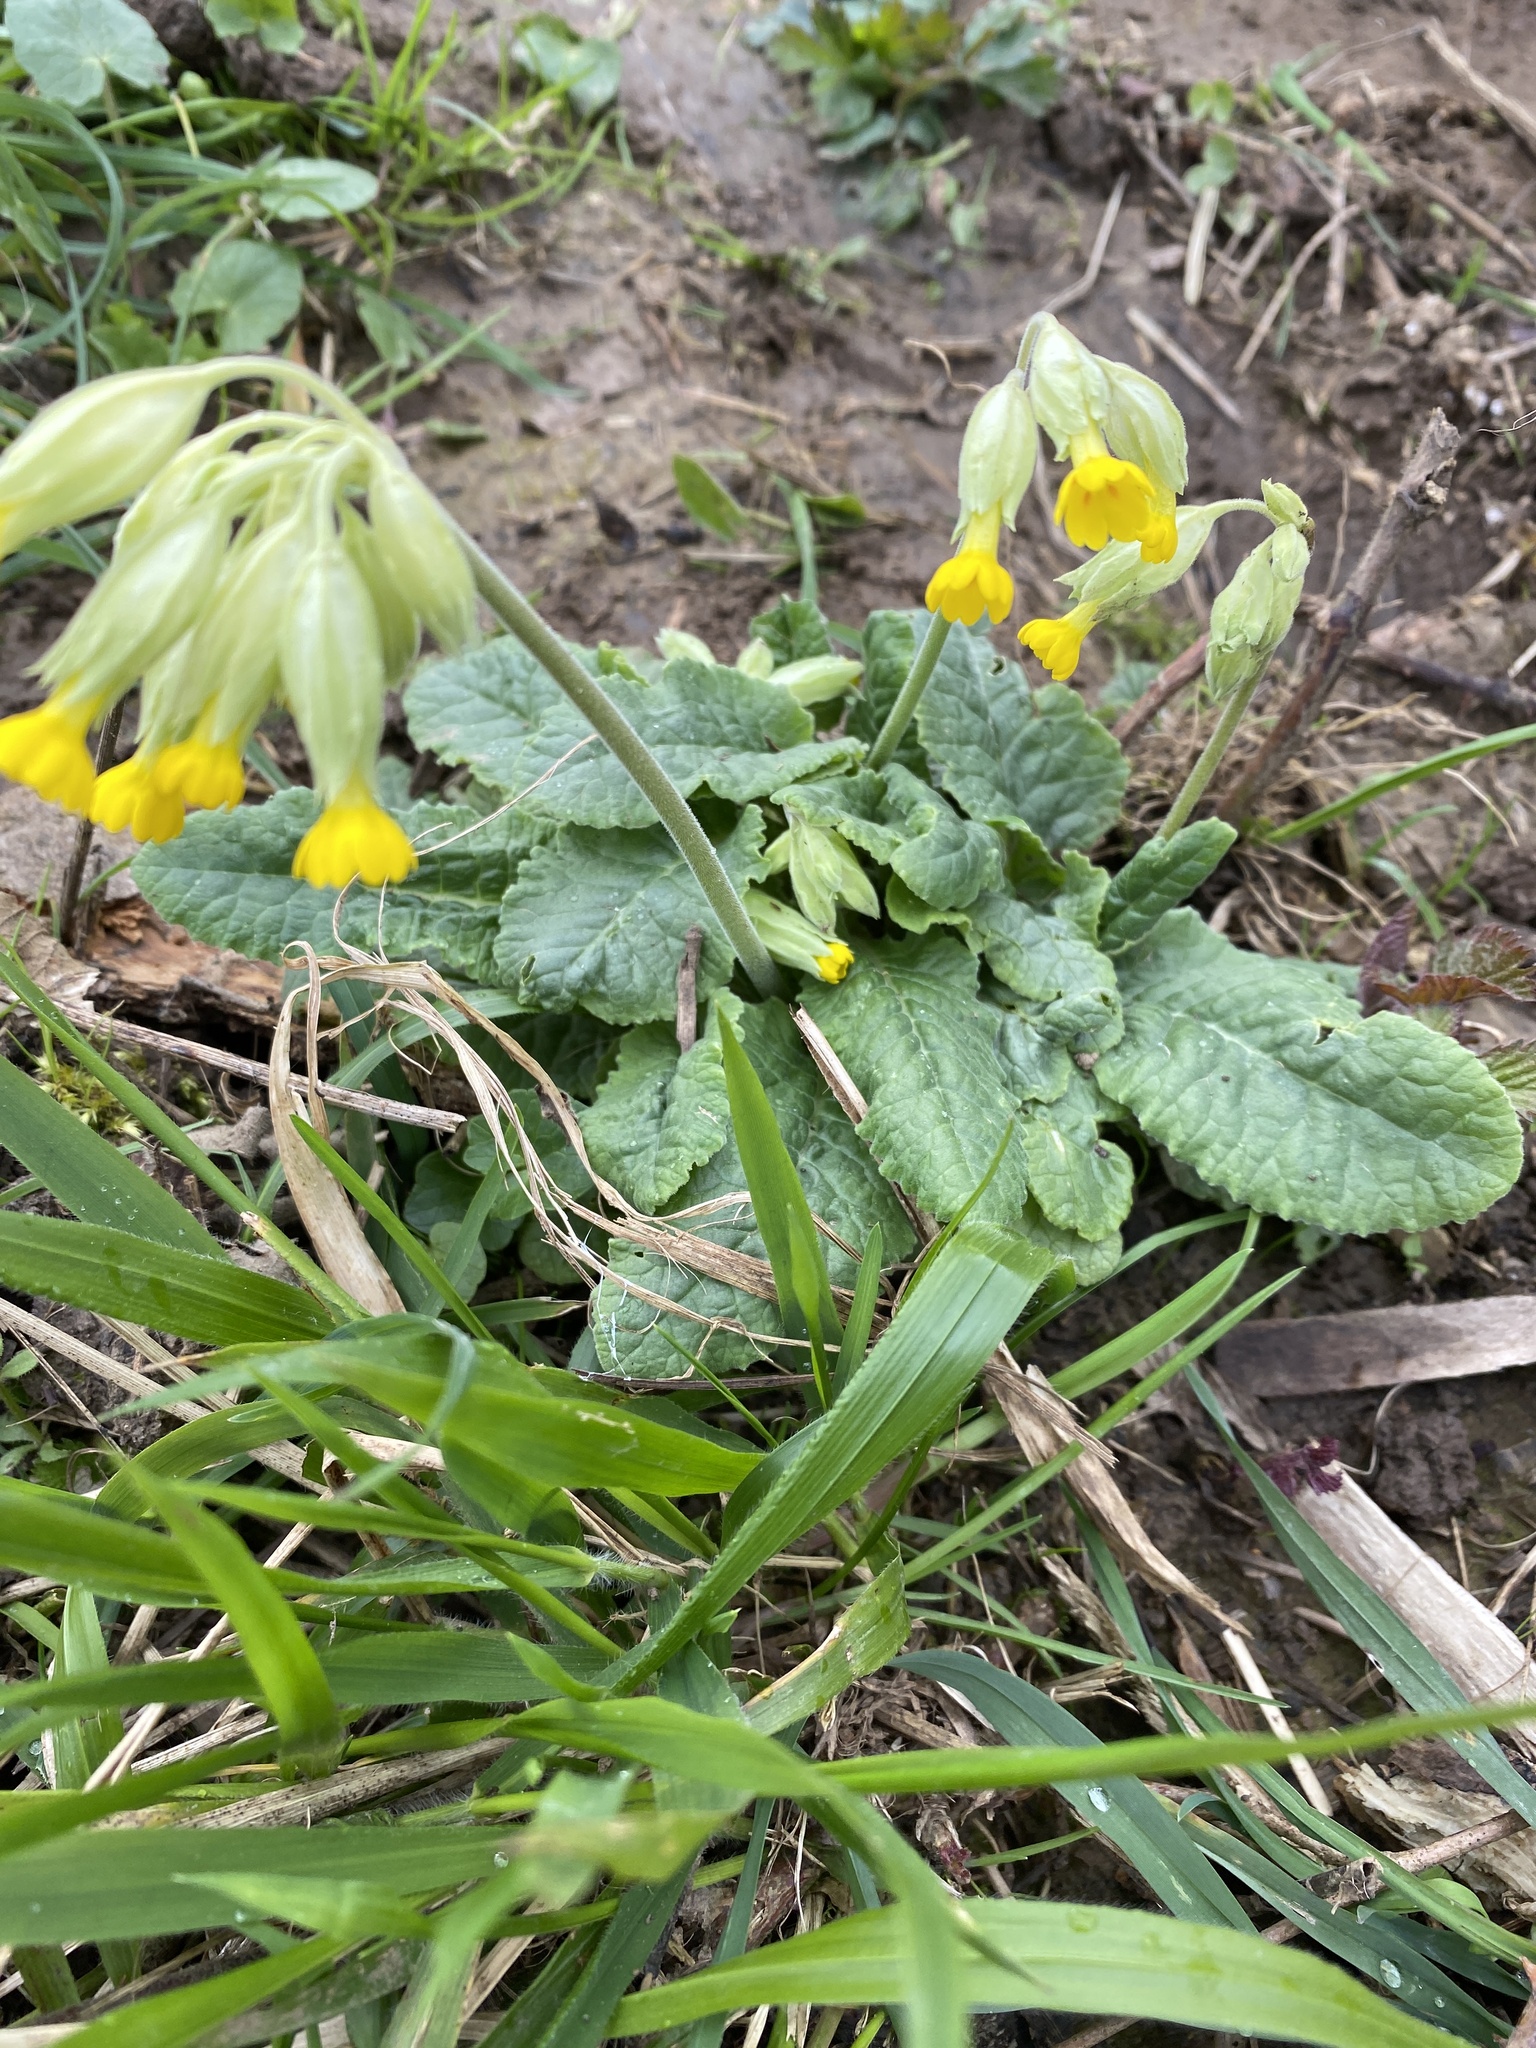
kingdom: Plantae
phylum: Tracheophyta
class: Magnoliopsida
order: Ericales
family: Primulaceae
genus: Primula
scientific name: Primula veris
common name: Cowslip
